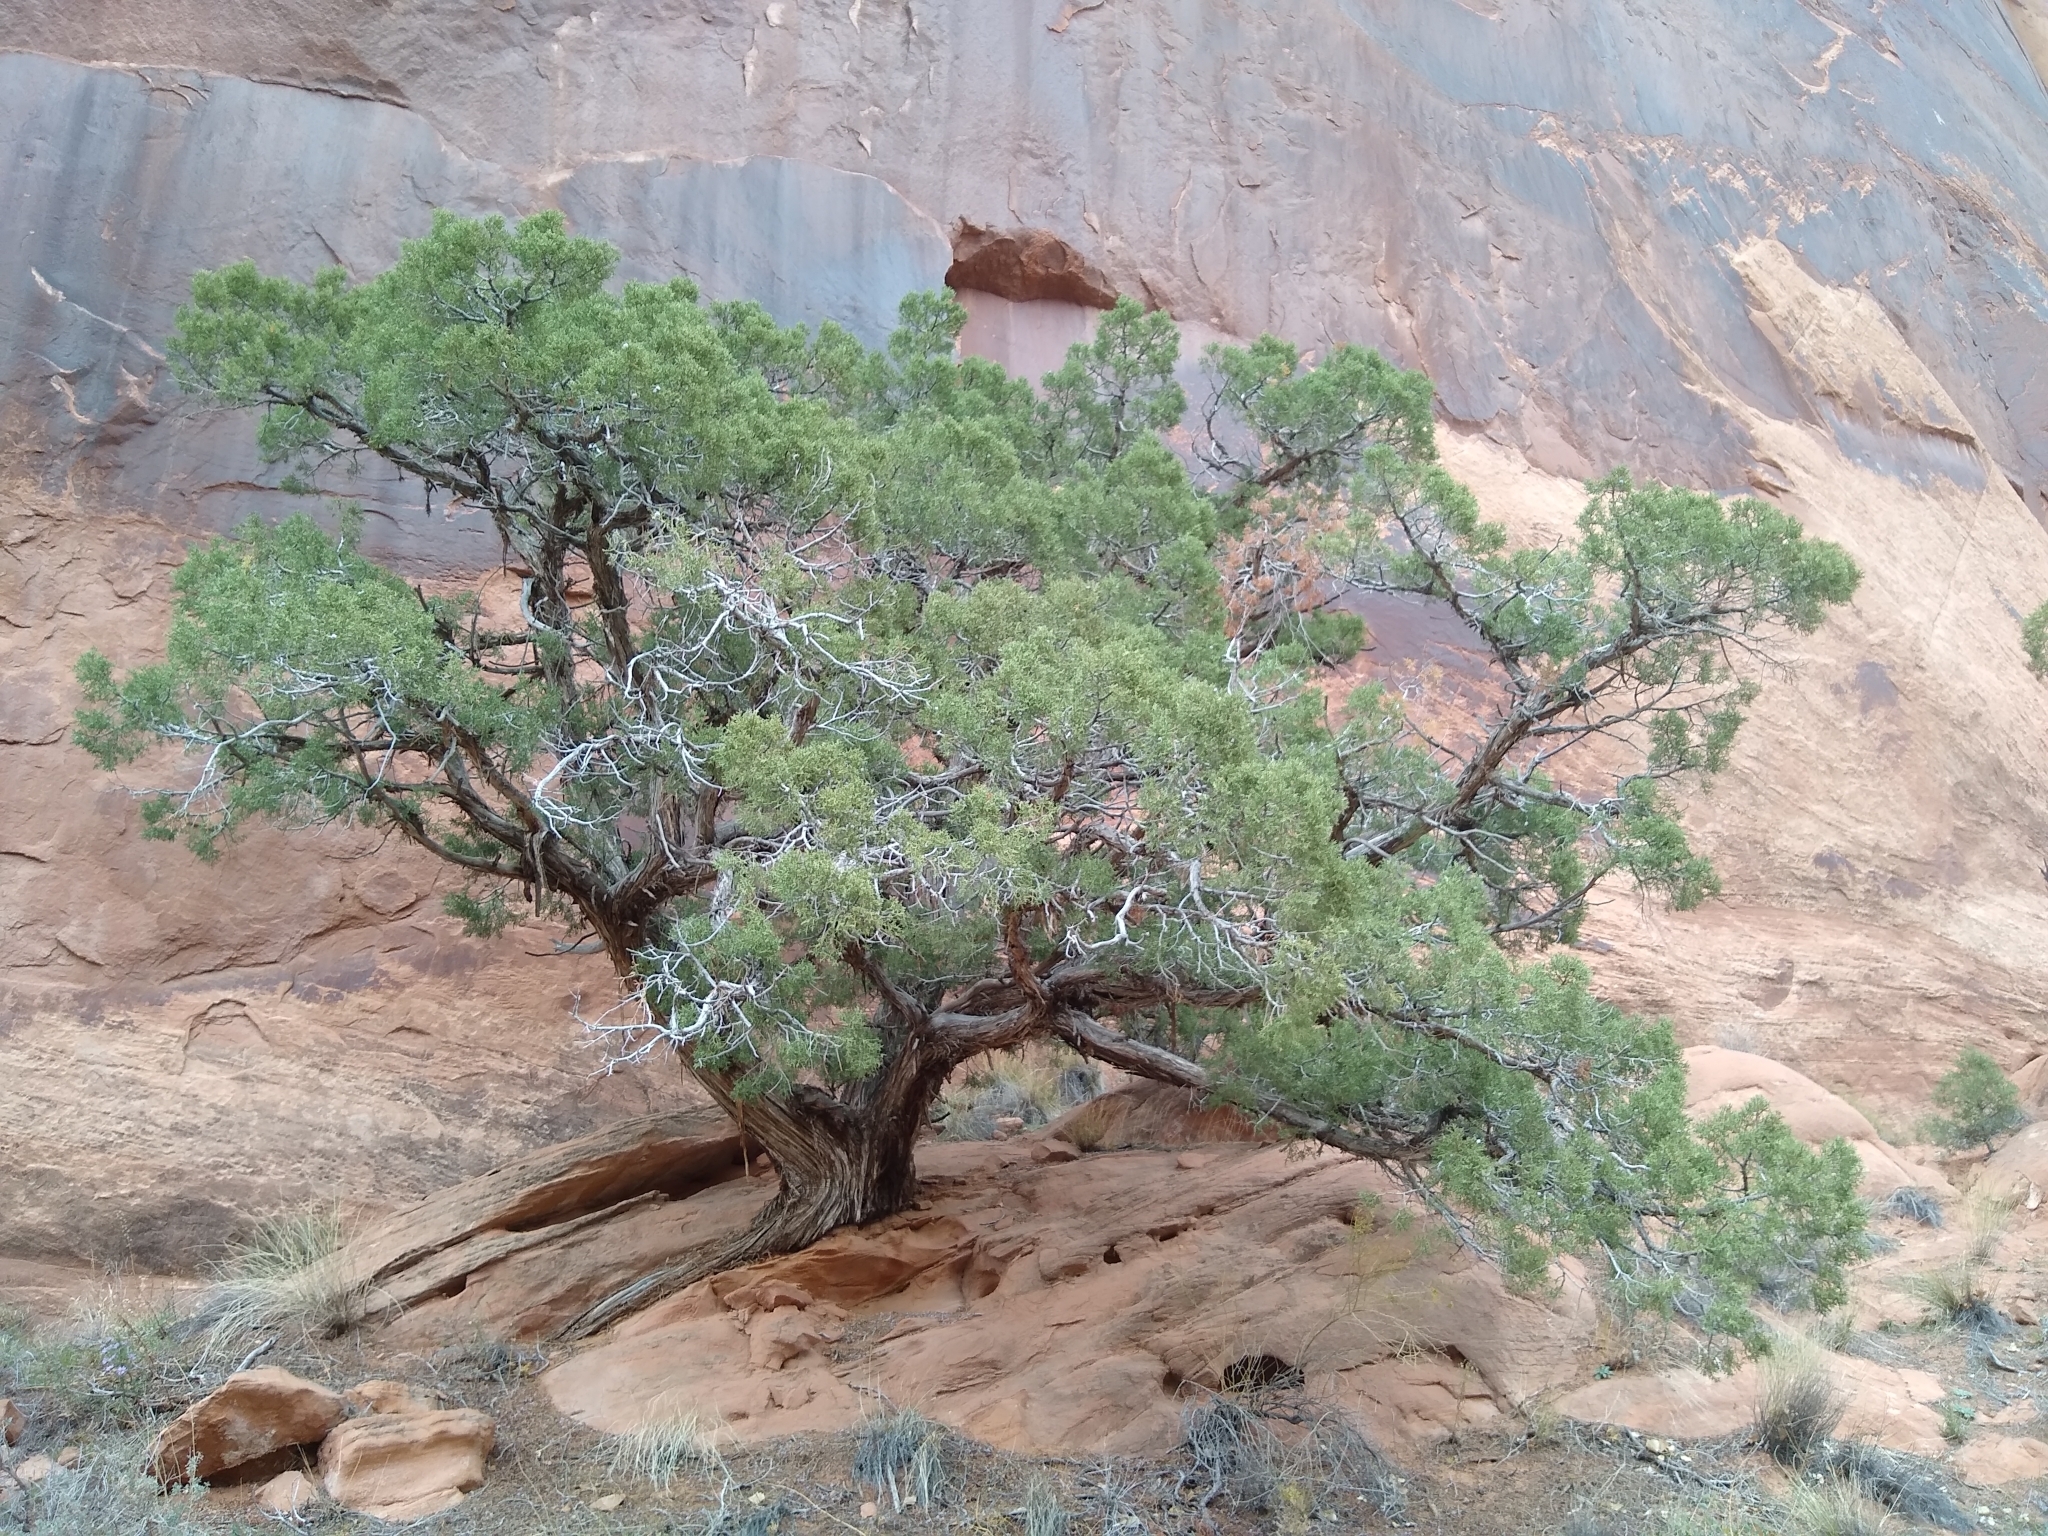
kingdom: Plantae
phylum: Tracheophyta
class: Pinopsida
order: Pinales
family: Cupressaceae
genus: Juniperus
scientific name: Juniperus osteosperma
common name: Utah juniper
